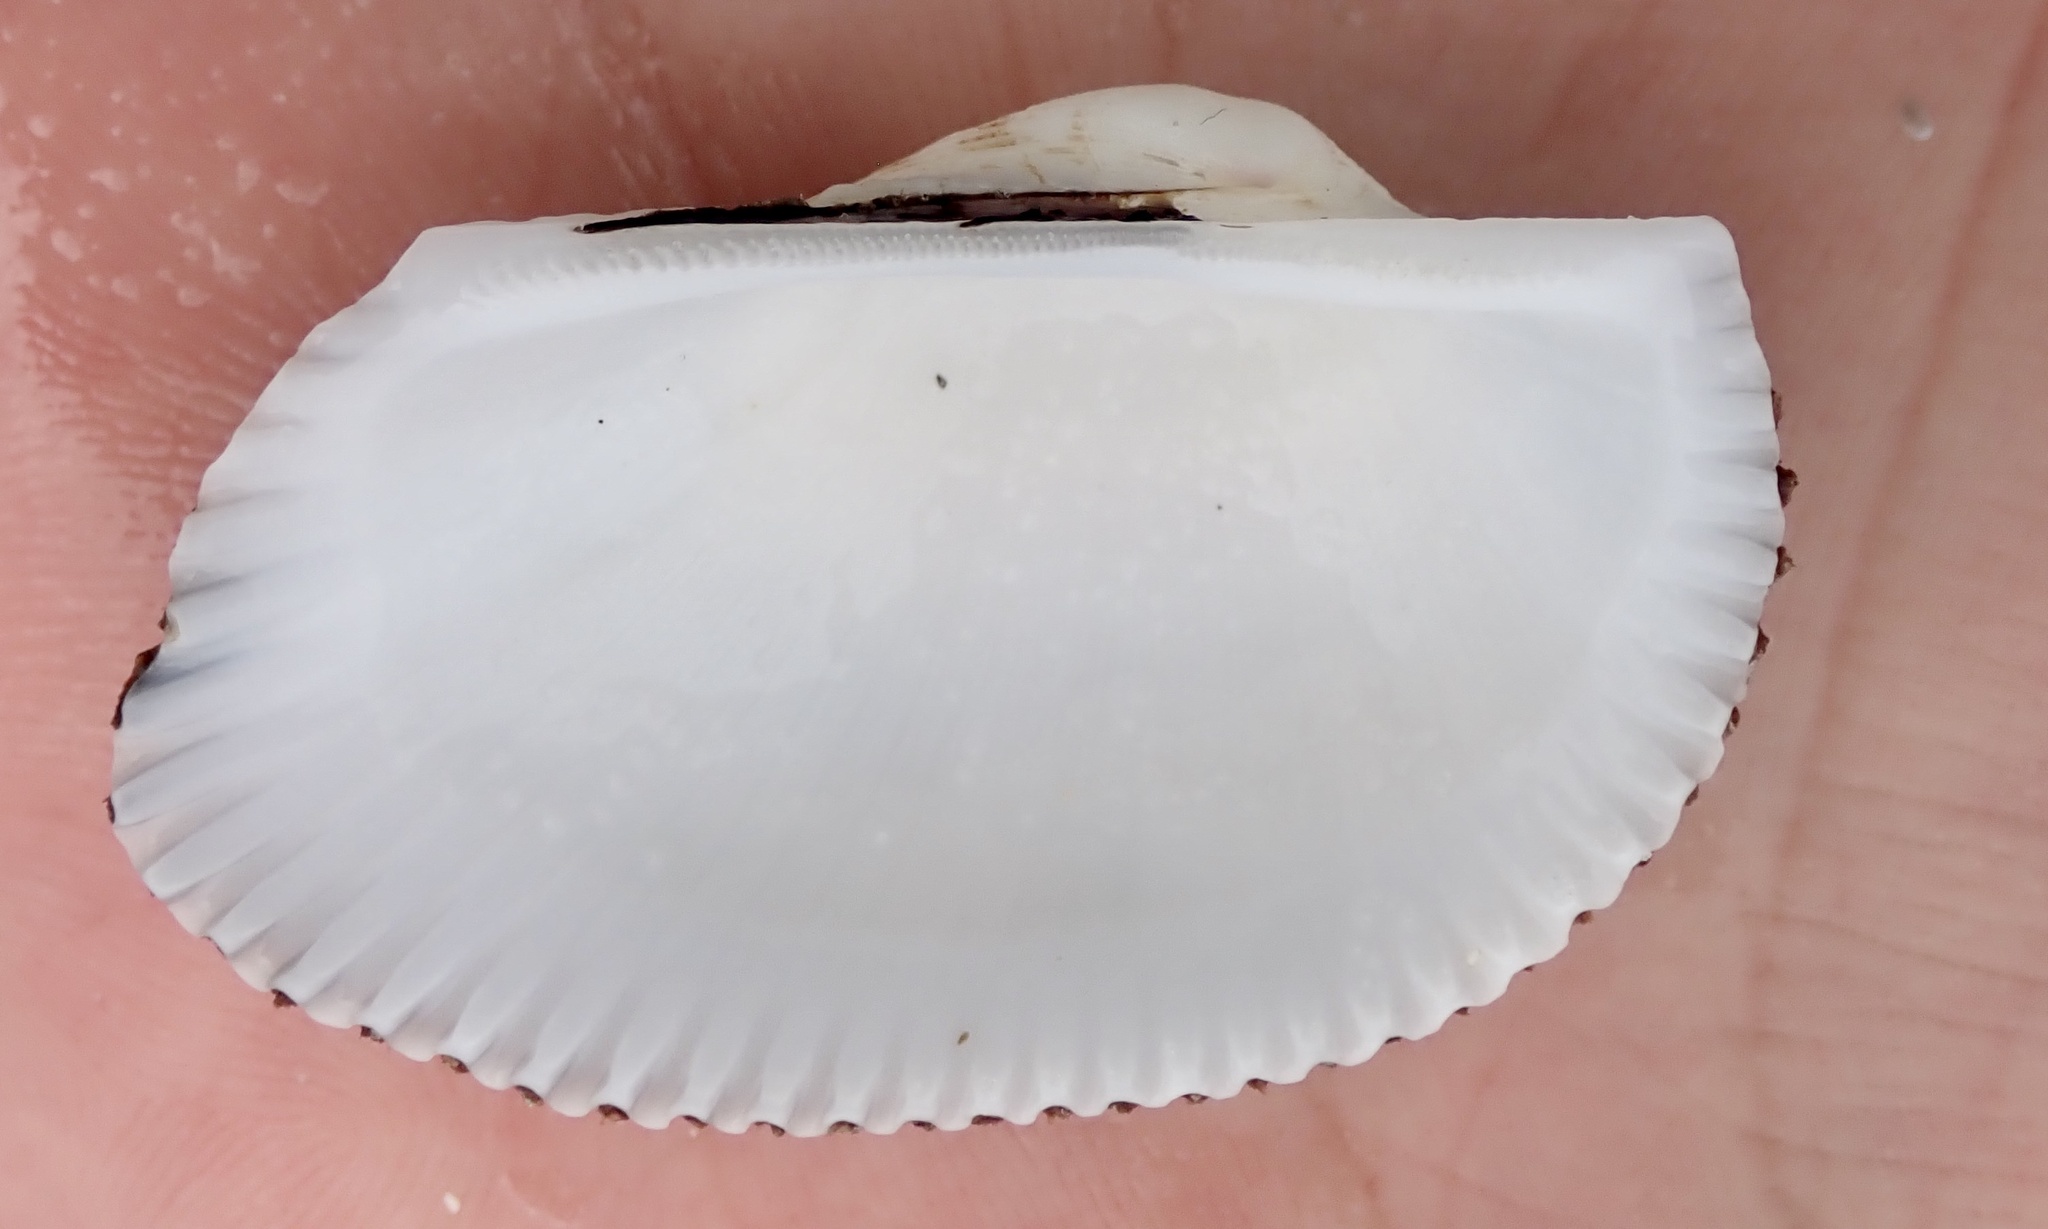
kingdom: Animalia
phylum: Mollusca
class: Bivalvia
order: Arcida
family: Arcidae
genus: Anadara
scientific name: Anadara secticostata
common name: Cut-ribbed ark
